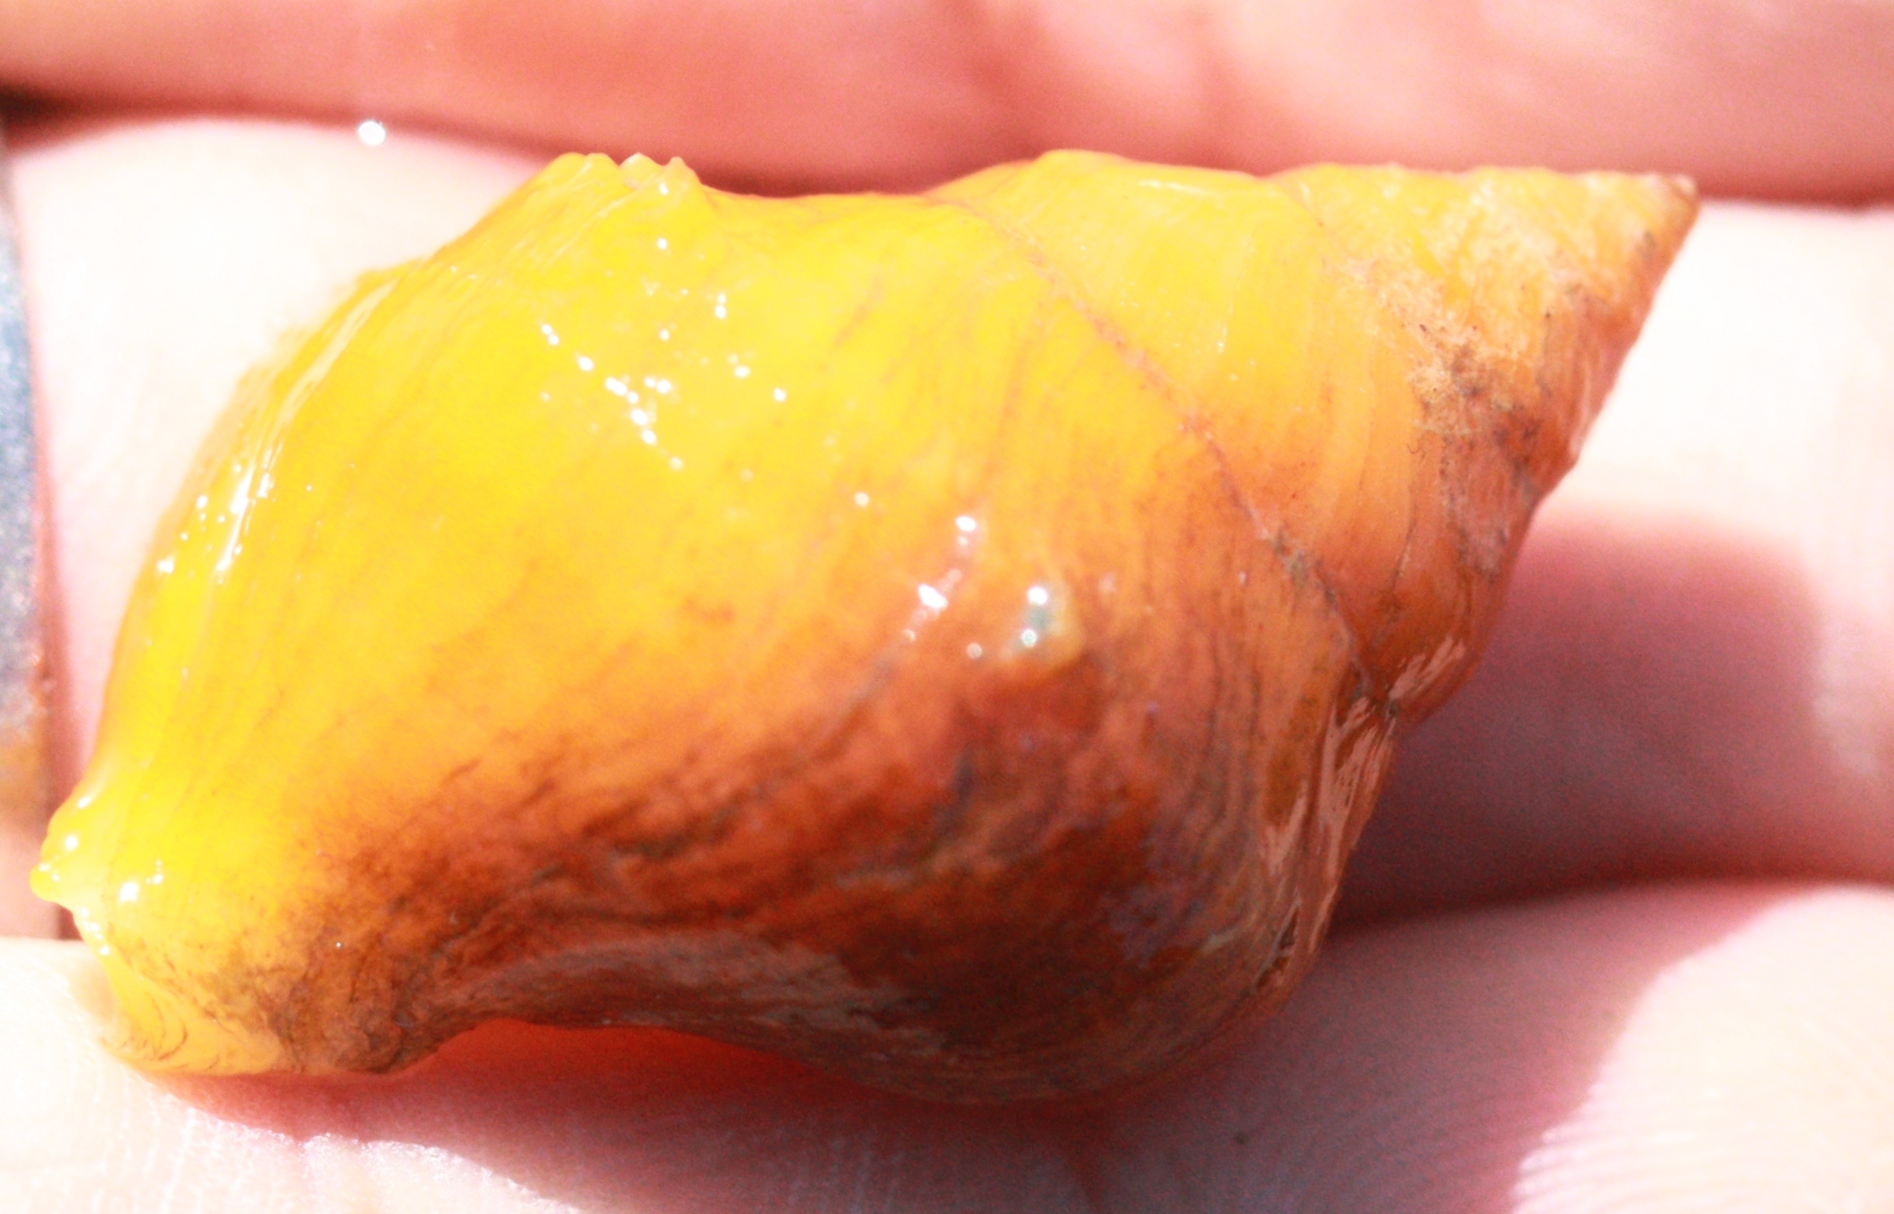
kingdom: Animalia
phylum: Mollusca
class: Gastropoda
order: Neogastropoda
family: Muricidae
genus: Nucella
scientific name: Nucella lamellosa
